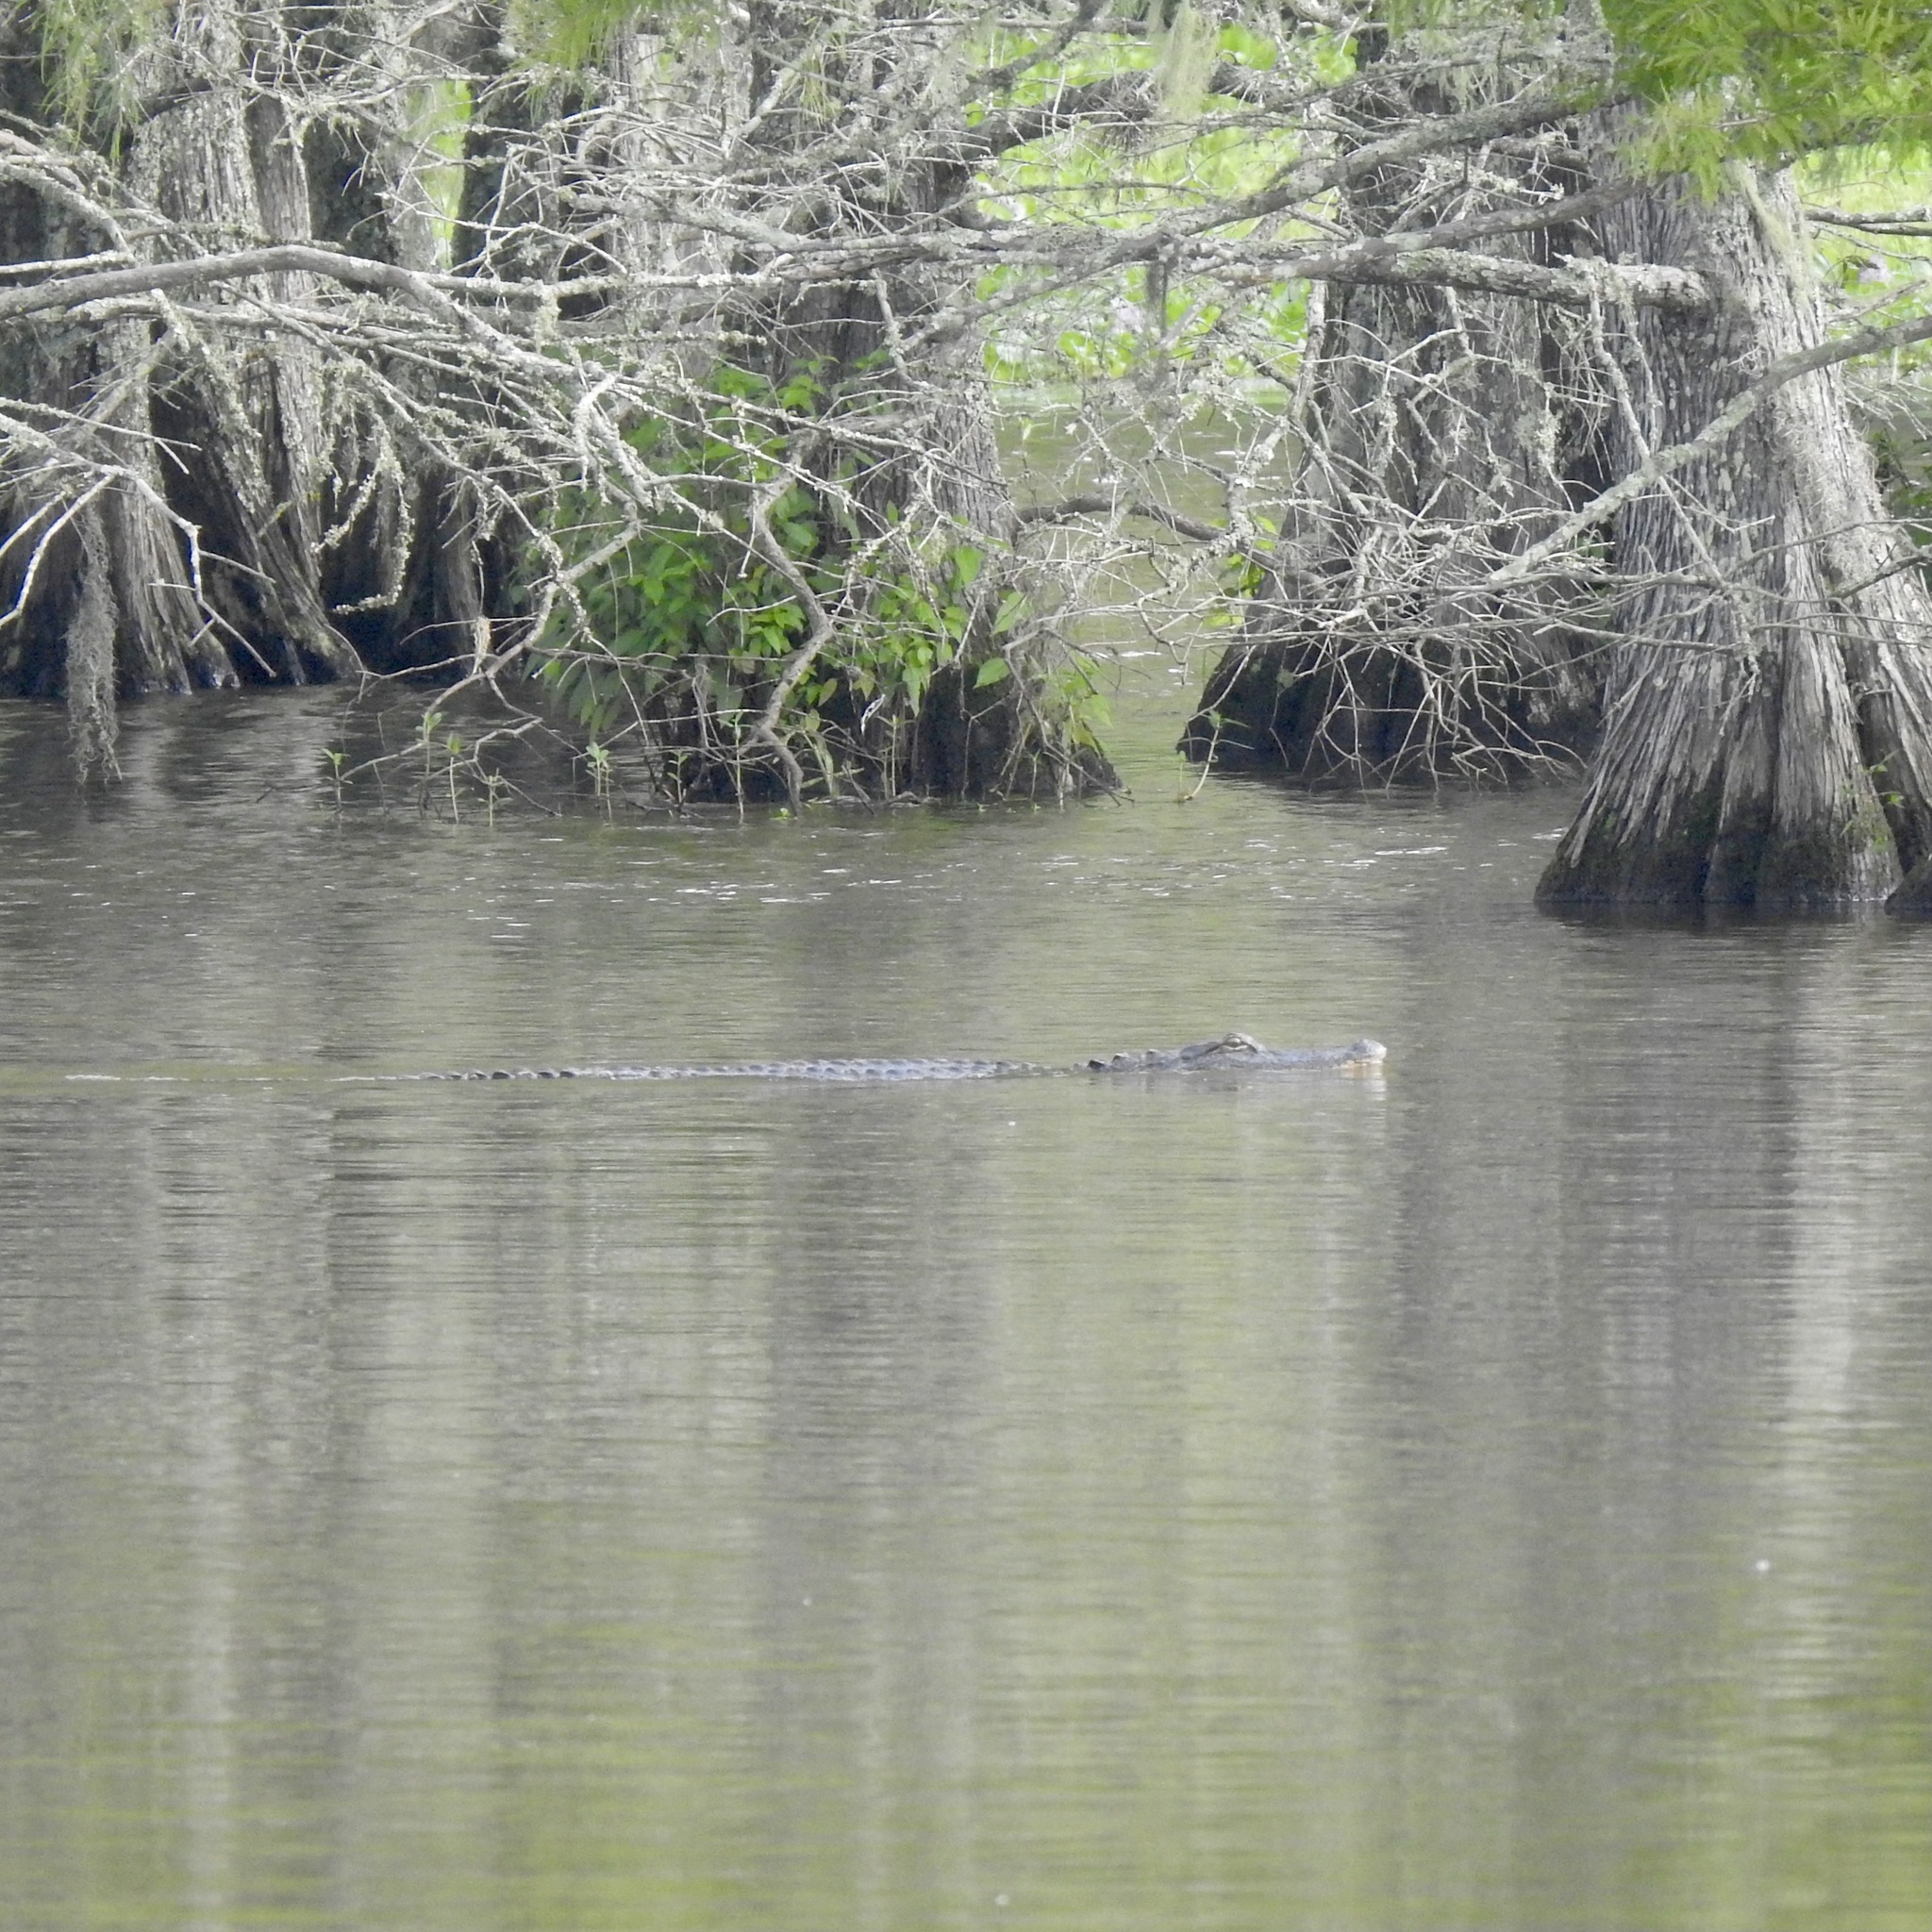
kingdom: Animalia
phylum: Chordata
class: Crocodylia
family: Alligatoridae
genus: Alligator
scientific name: Alligator mississippiensis
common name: American alligator
